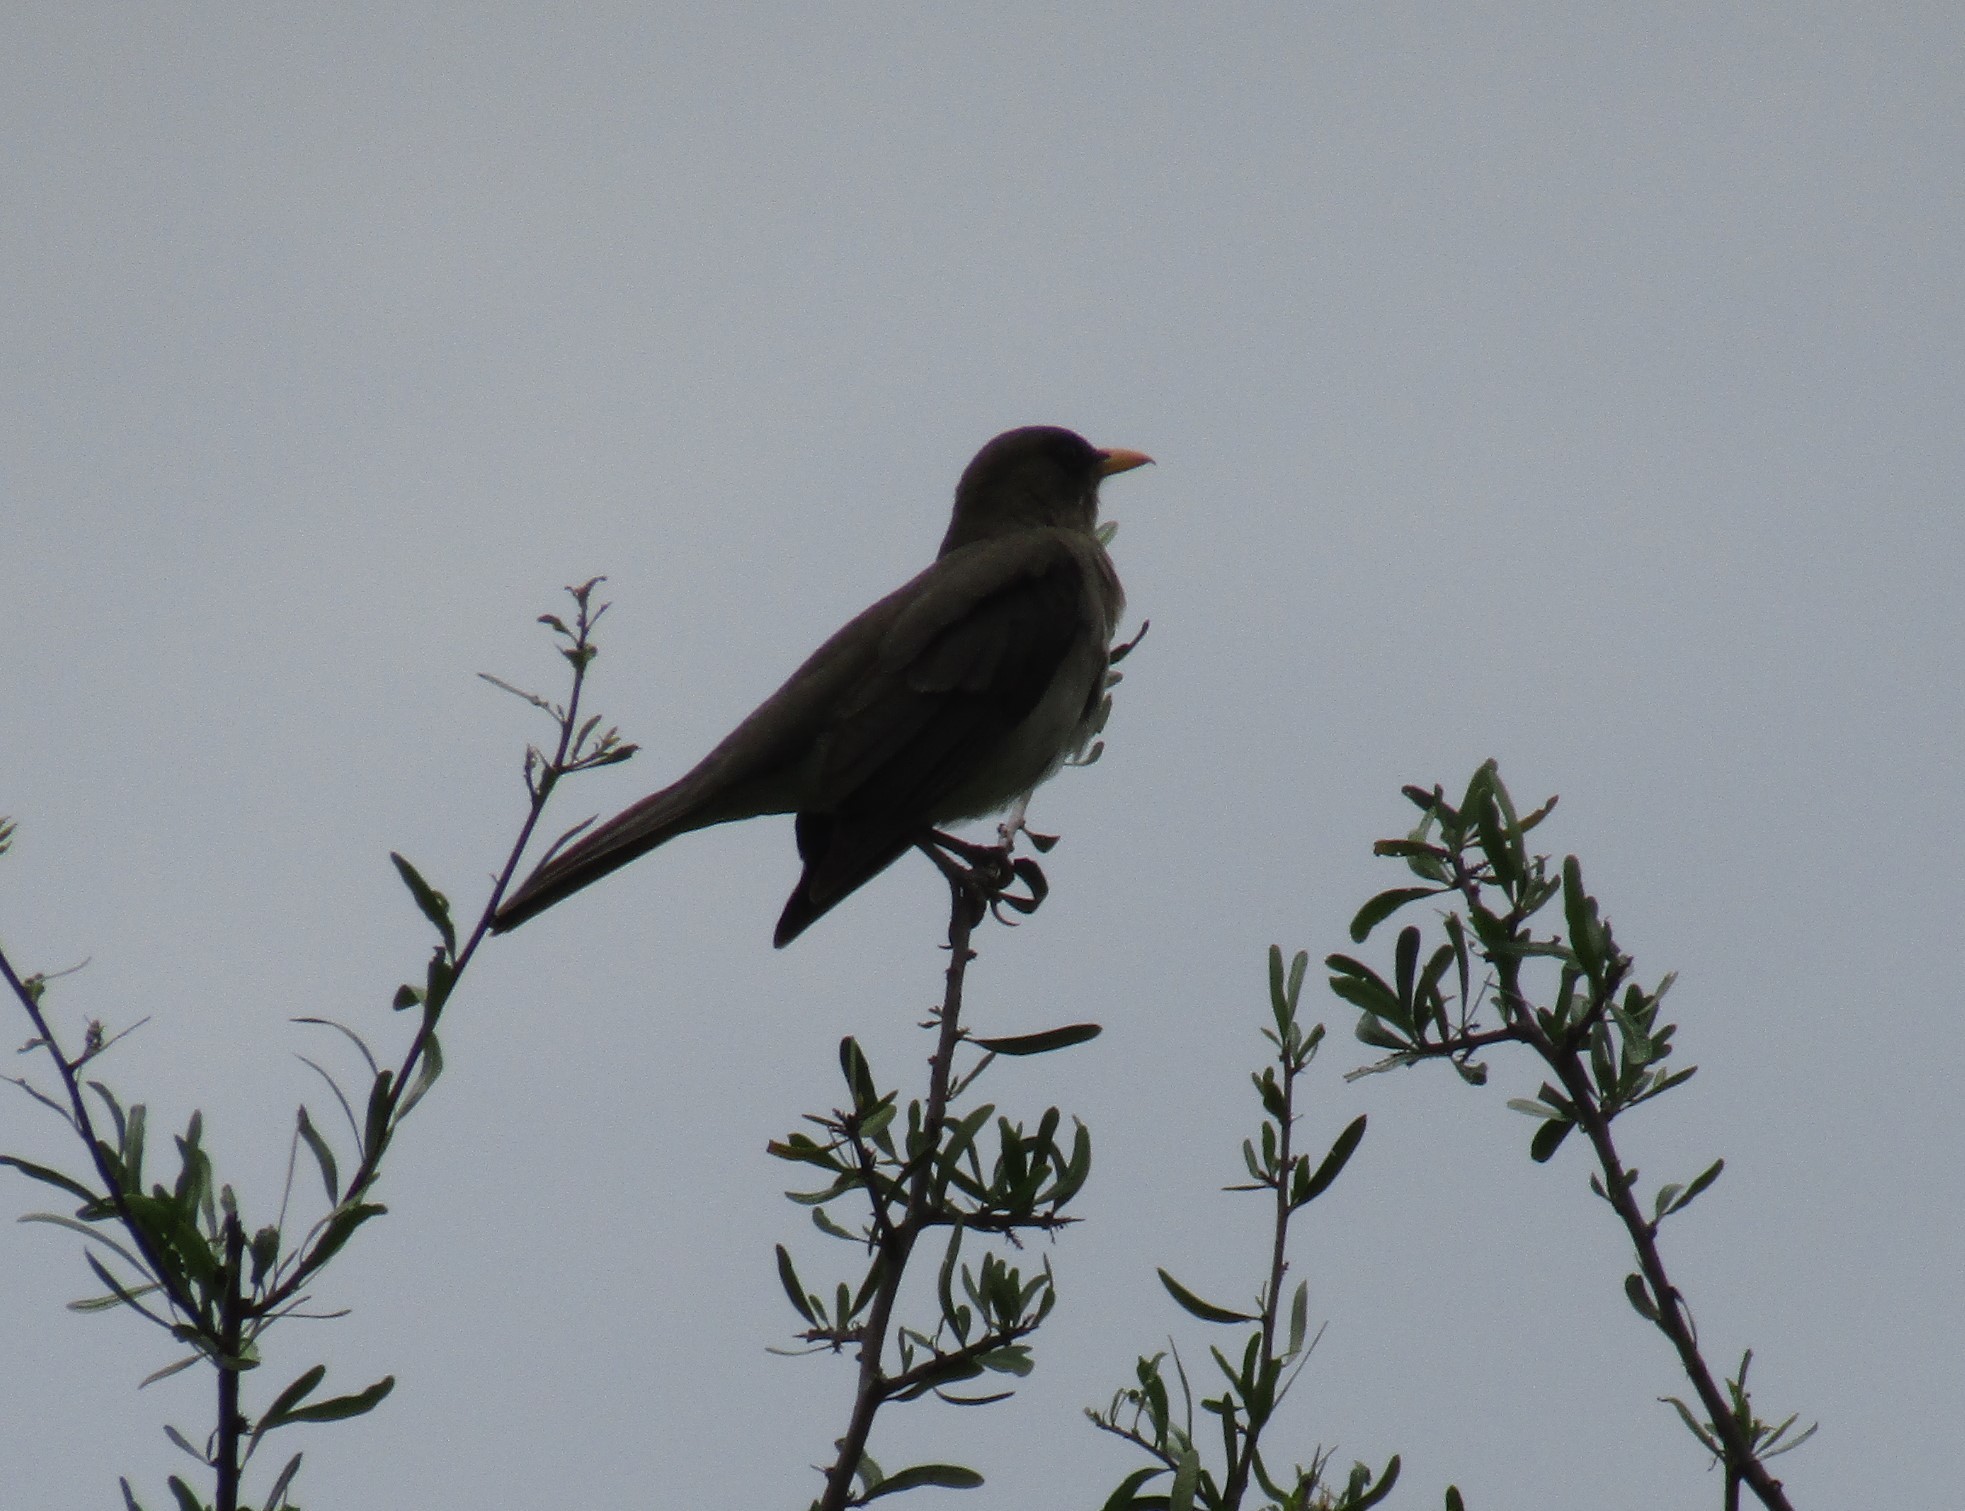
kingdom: Animalia
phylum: Chordata
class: Aves
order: Passeriformes
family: Turdidae
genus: Turdus
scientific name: Turdus amaurochalinus
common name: Creamy-bellied thrush
